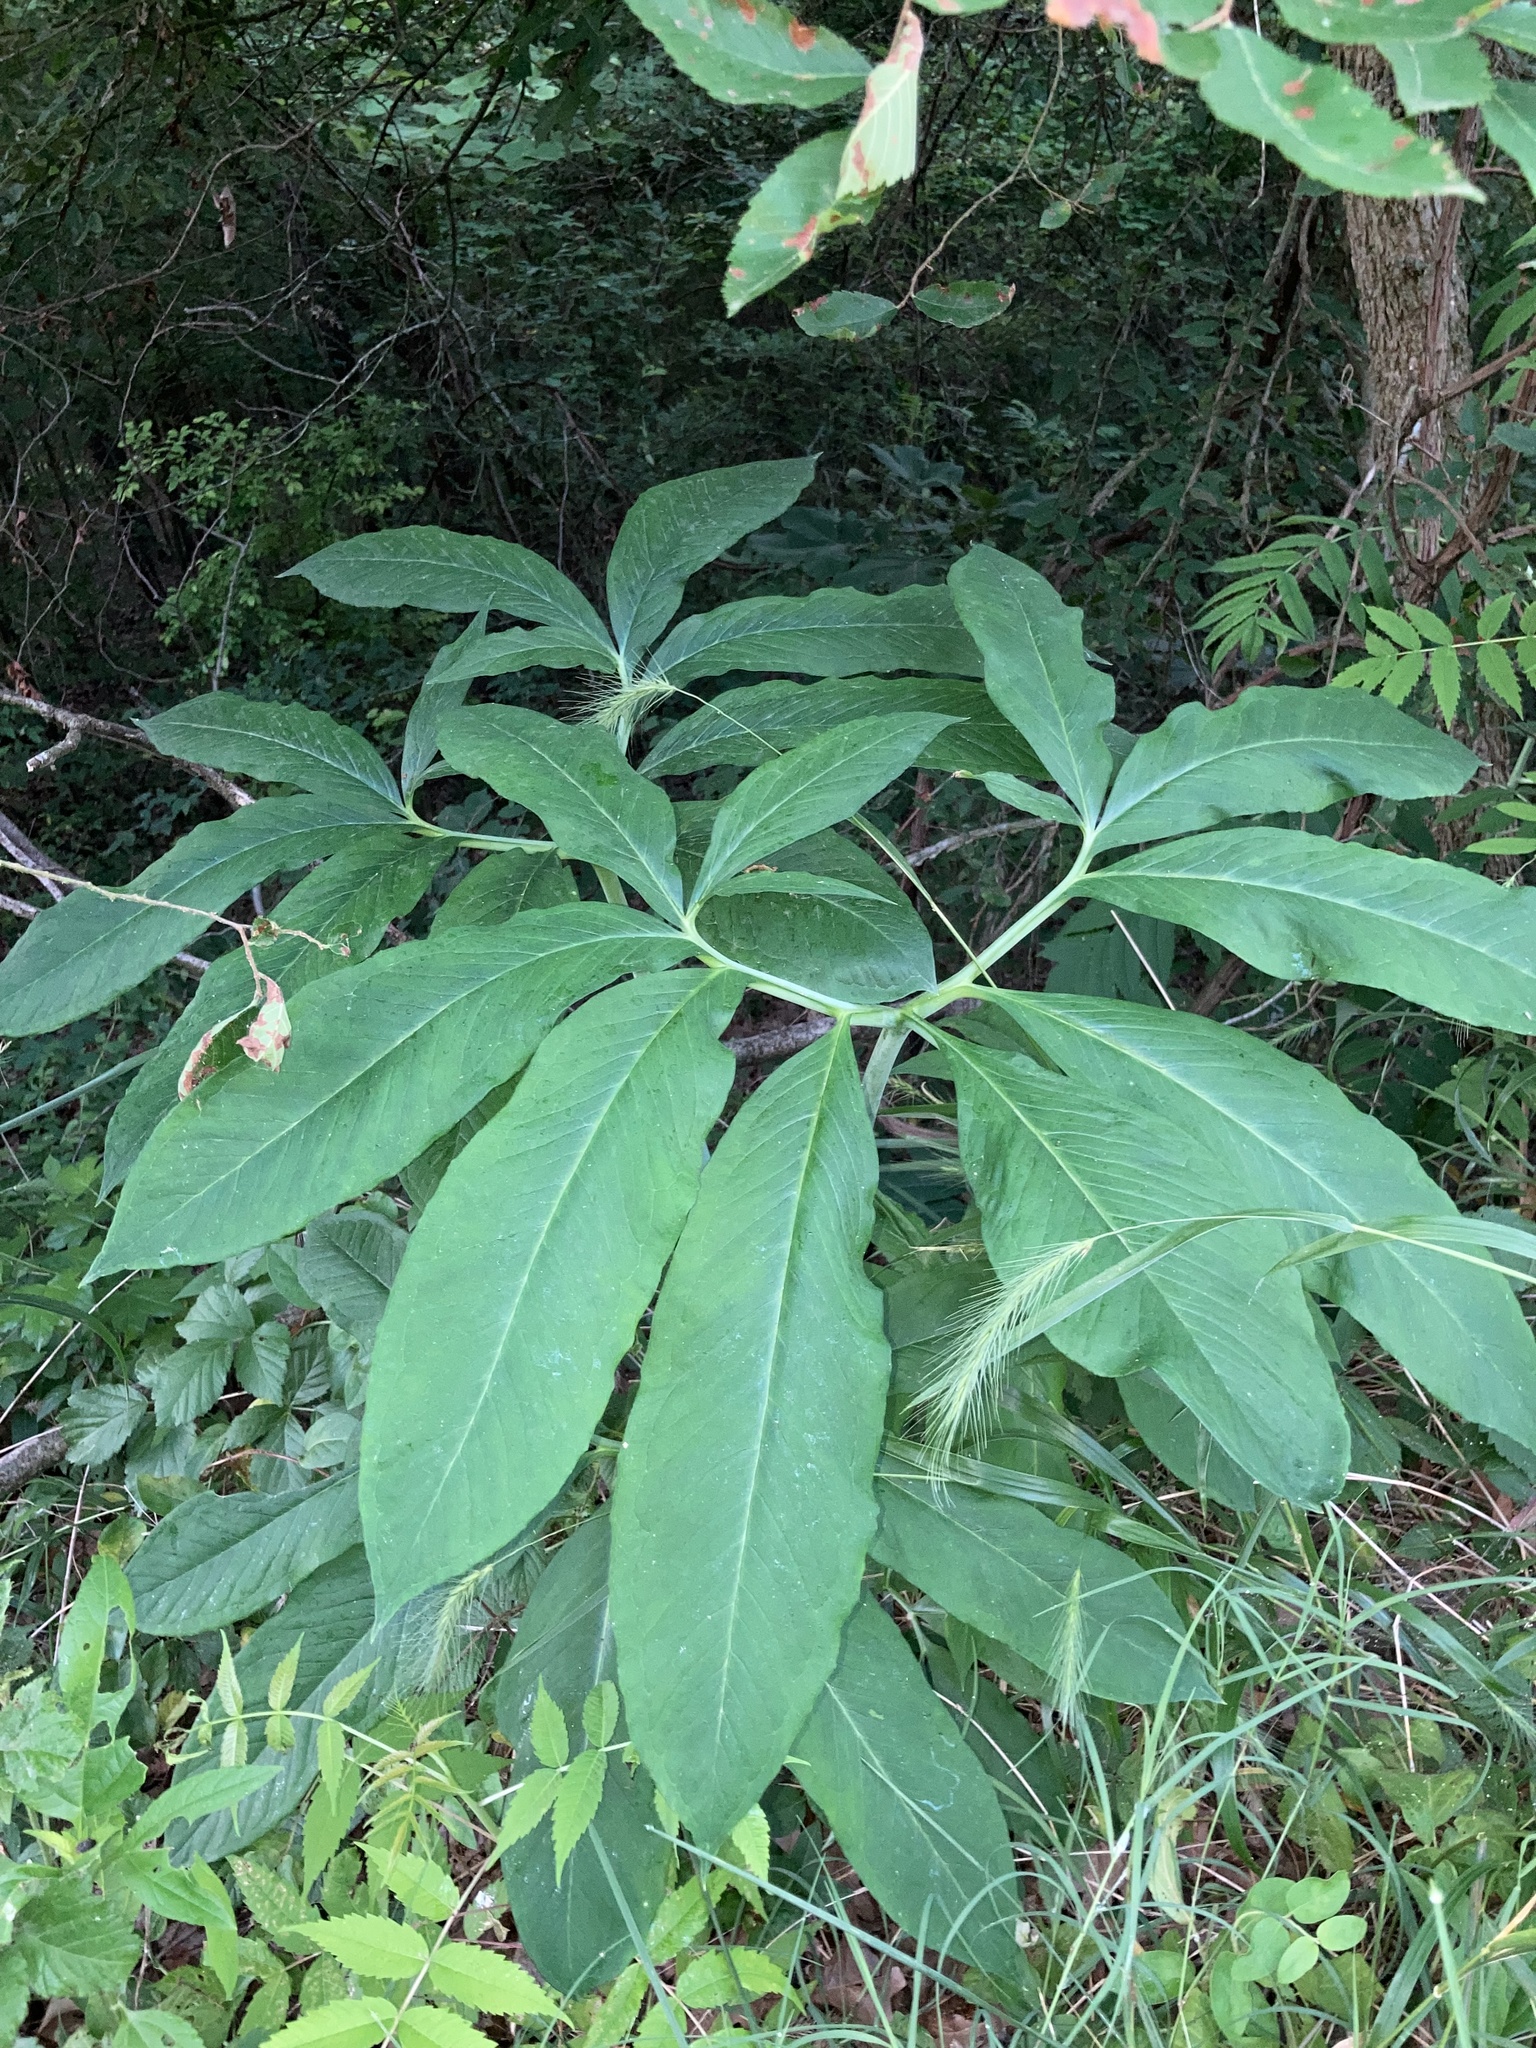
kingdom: Plantae
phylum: Tracheophyta
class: Liliopsida
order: Alismatales
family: Araceae
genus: Arisaema
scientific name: Arisaema dracontium
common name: Dragon-arum
